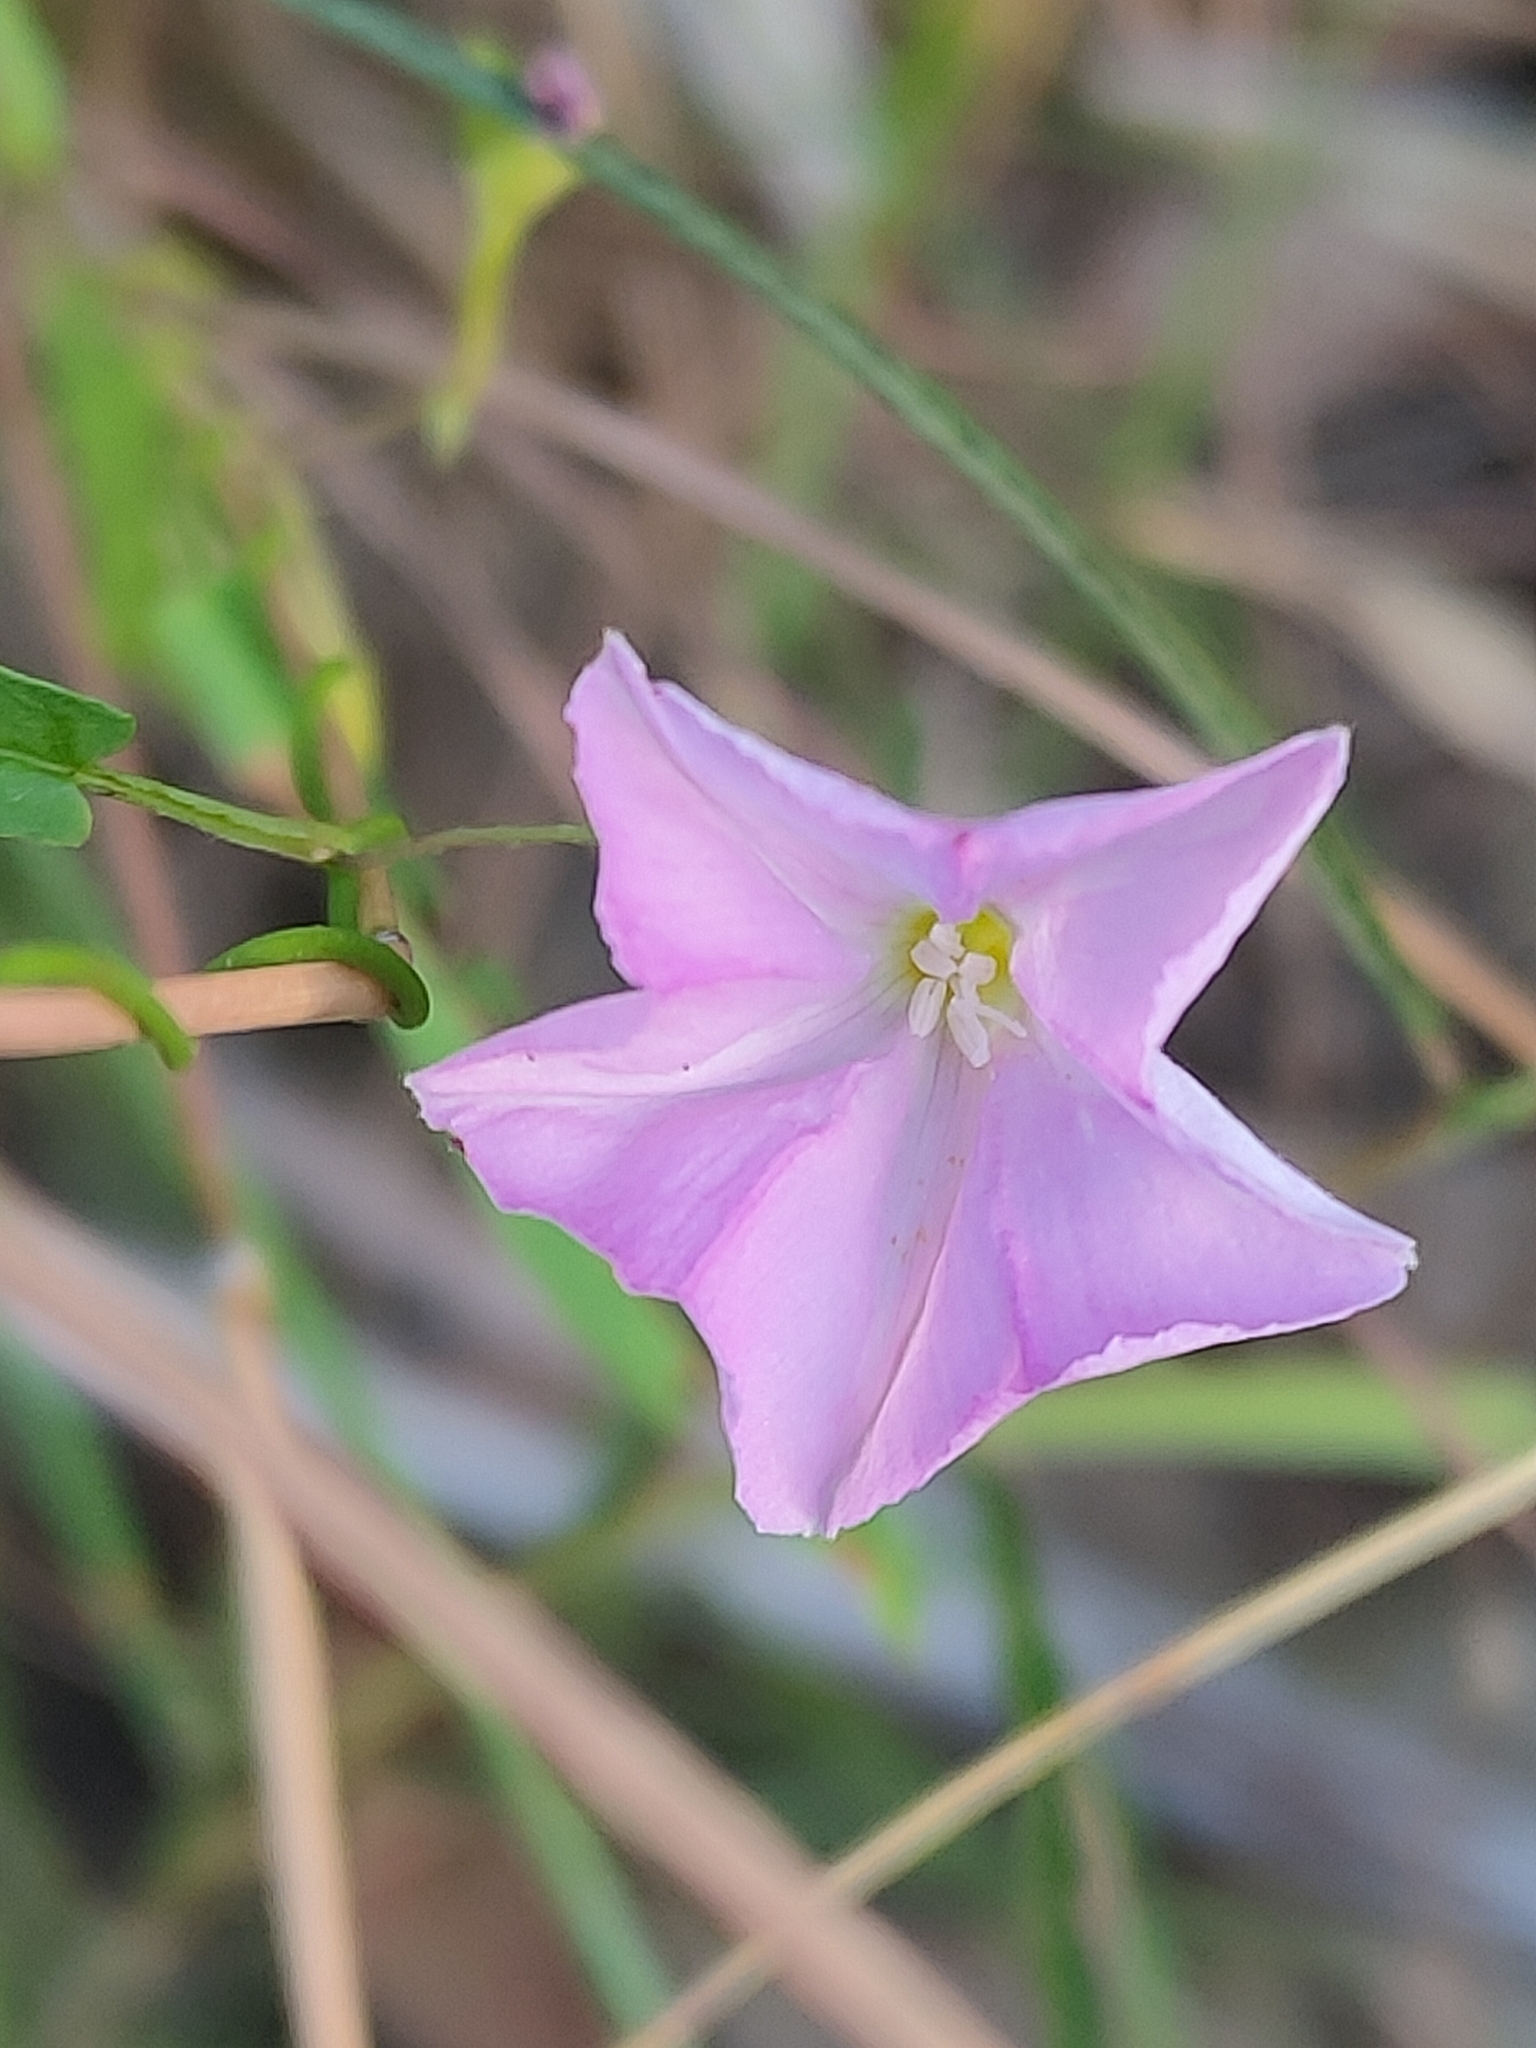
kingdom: Plantae
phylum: Tracheophyta
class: Magnoliopsida
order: Solanales
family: Convolvulaceae
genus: Polymeria
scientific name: Polymeria calycina
